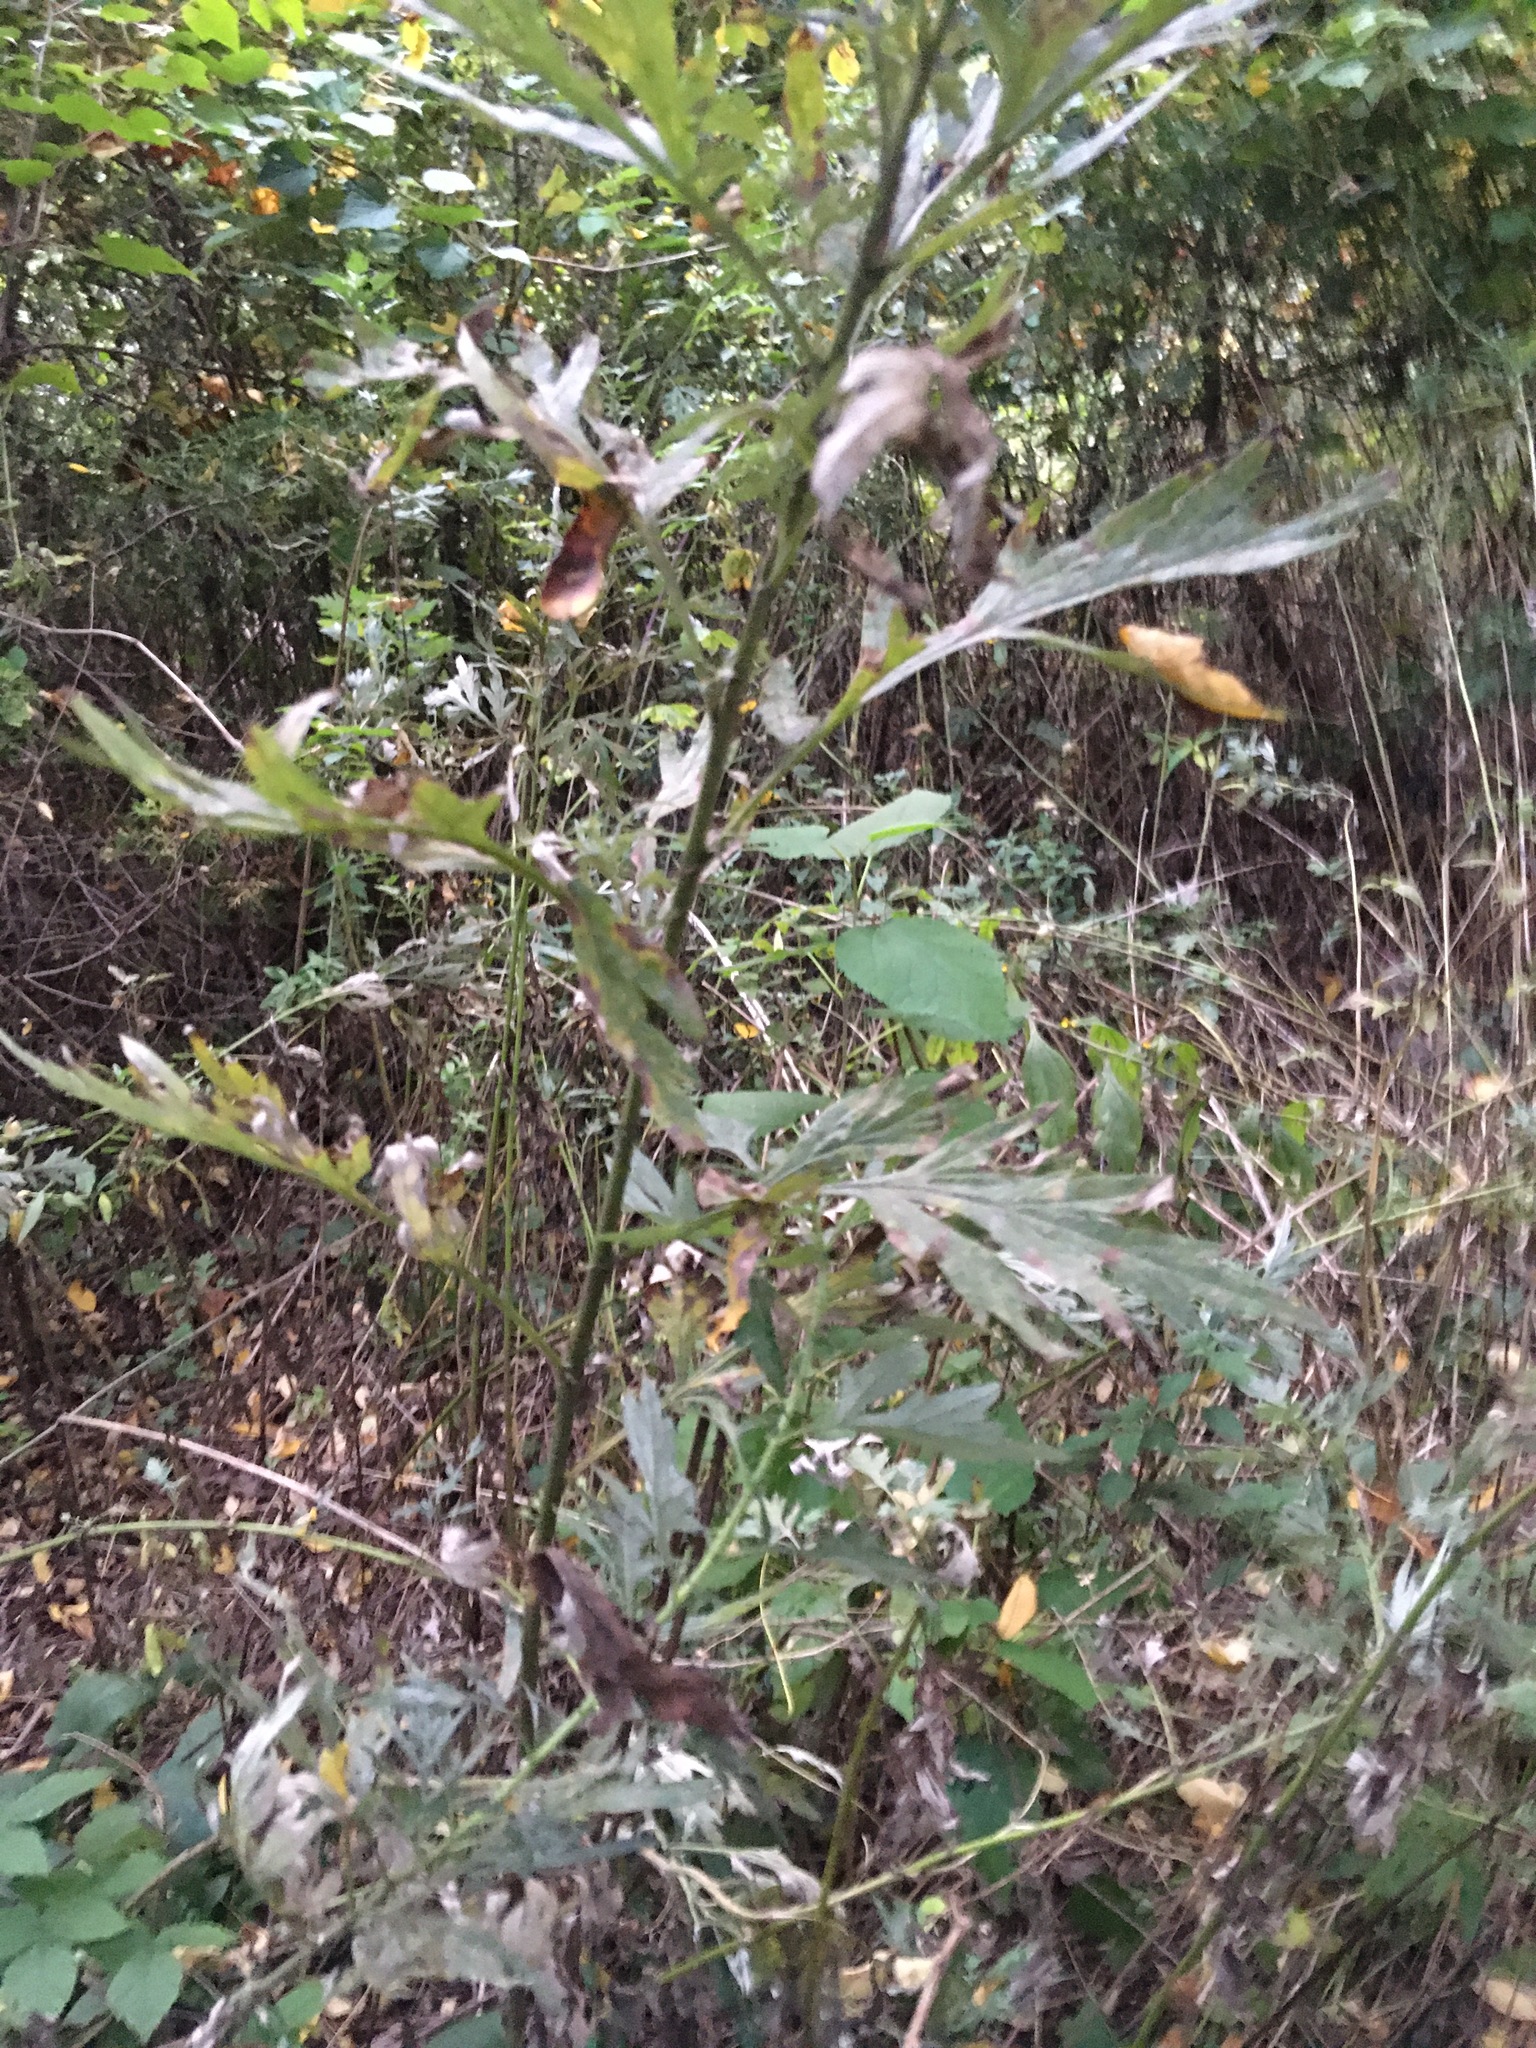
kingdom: Plantae
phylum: Tracheophyta
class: Magnoliopsida
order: Asterales
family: Asteraceae
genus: Artemisia
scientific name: Artemisia vulgaris
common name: Mugwort
